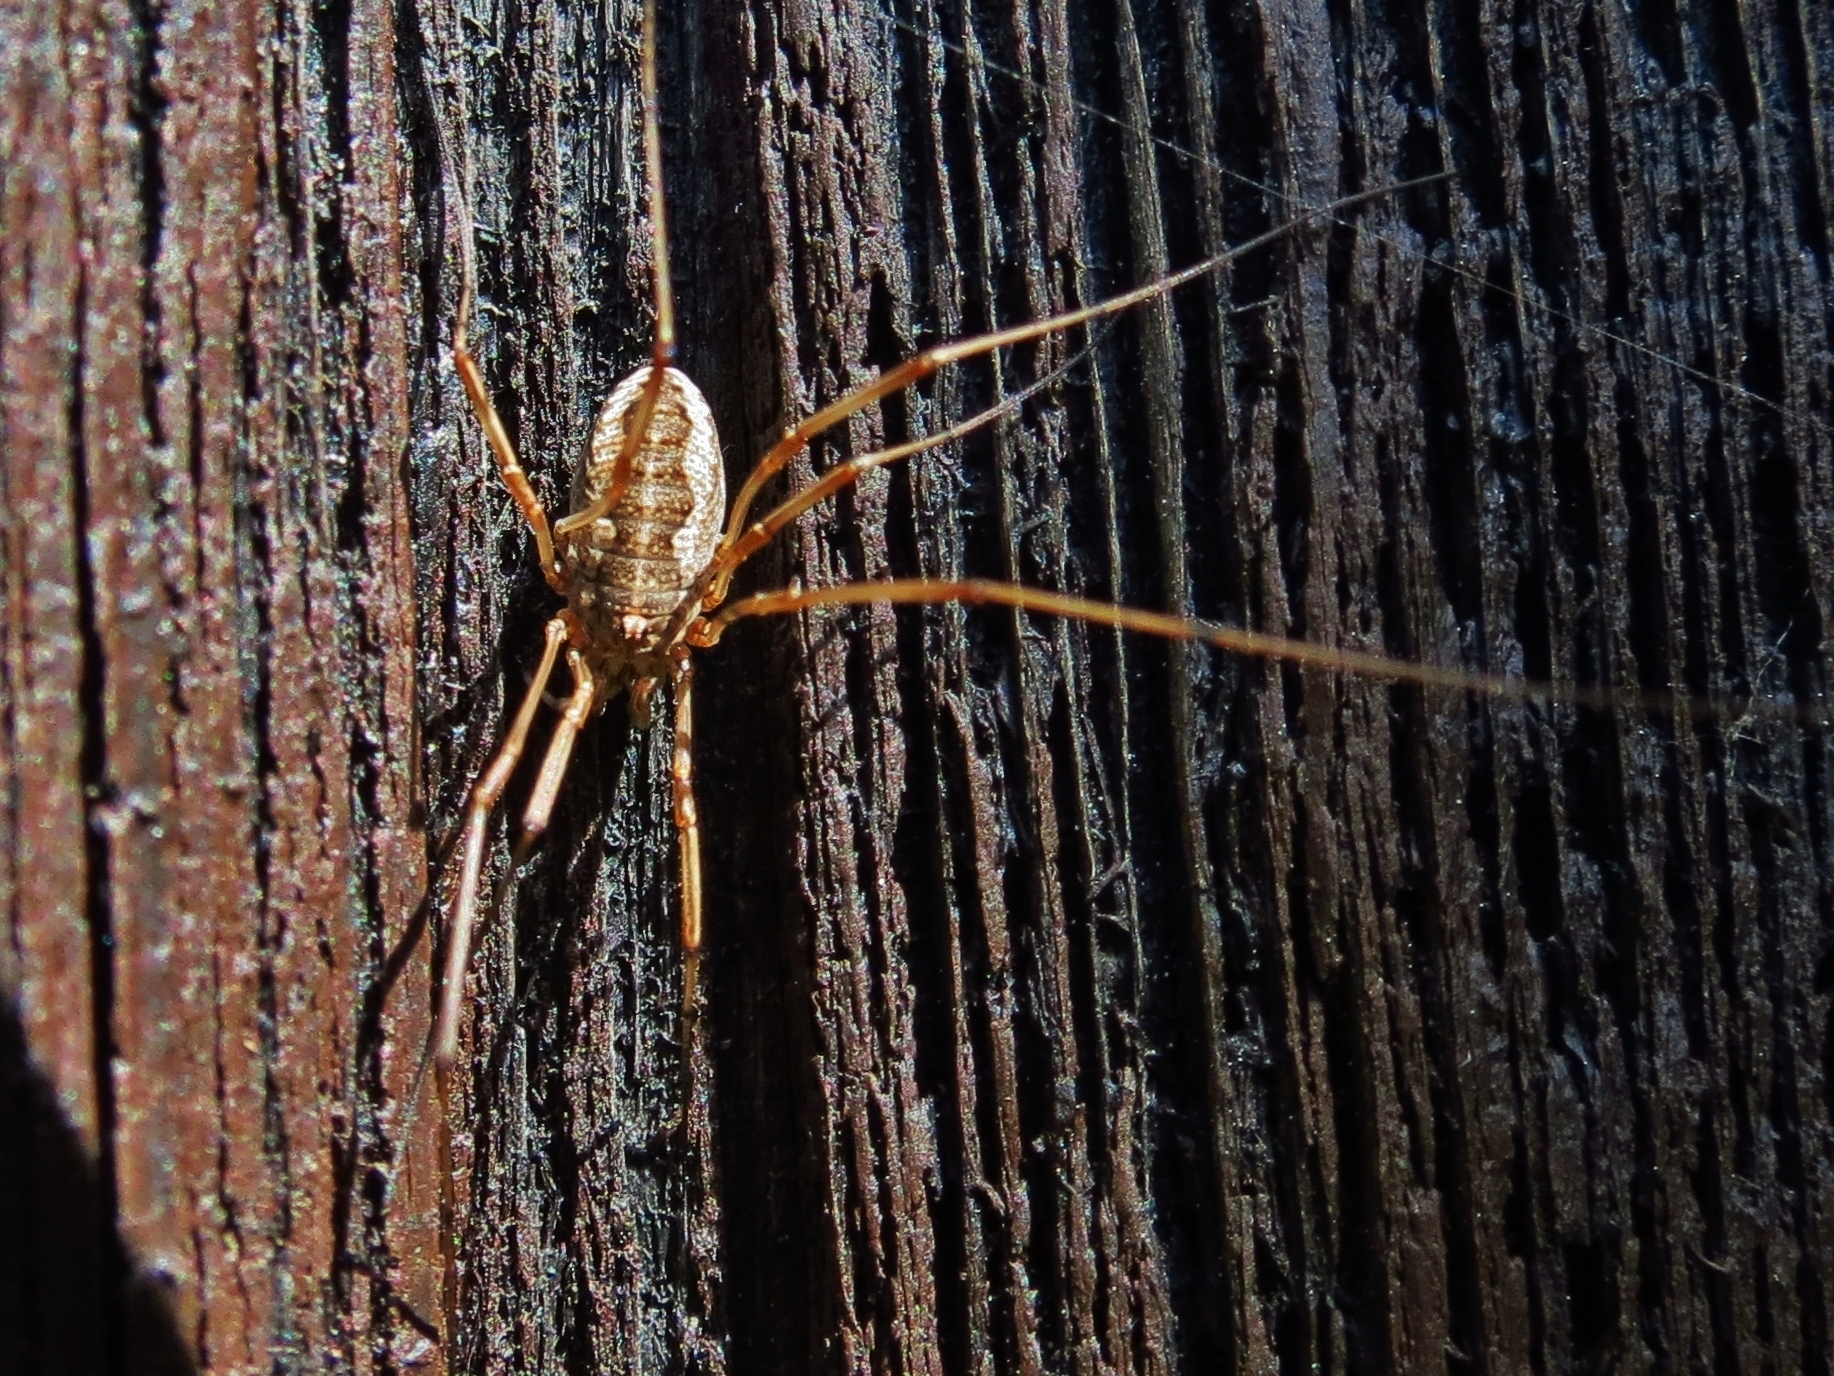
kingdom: Animalia
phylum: Arthropoda
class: Arachnida
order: Opiliones
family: Phalangiidae
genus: Phalangium
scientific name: Phalangium opilio
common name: Daddy longleg
